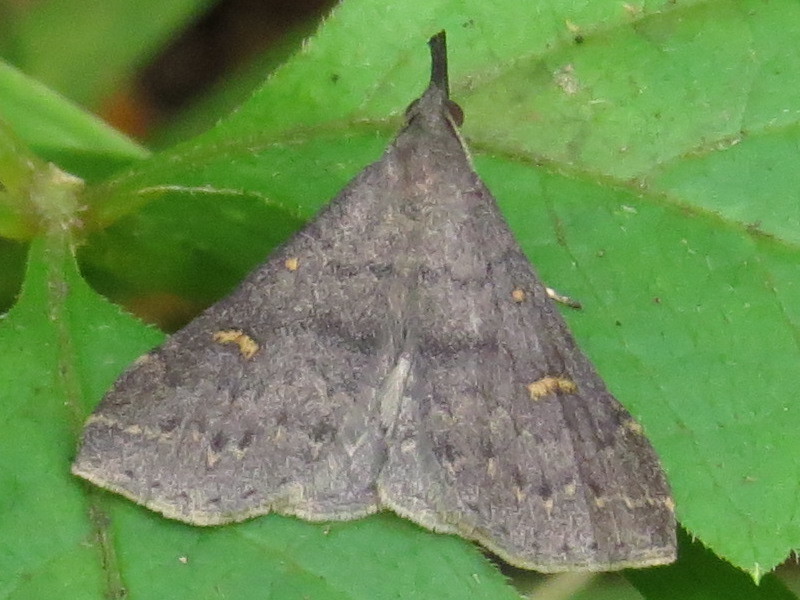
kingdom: Animalia
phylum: Arthropoda
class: Insecta
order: Lepidoptera
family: Erebidae
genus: Renia
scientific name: Renia adspergillus
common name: Speckled renia moth
